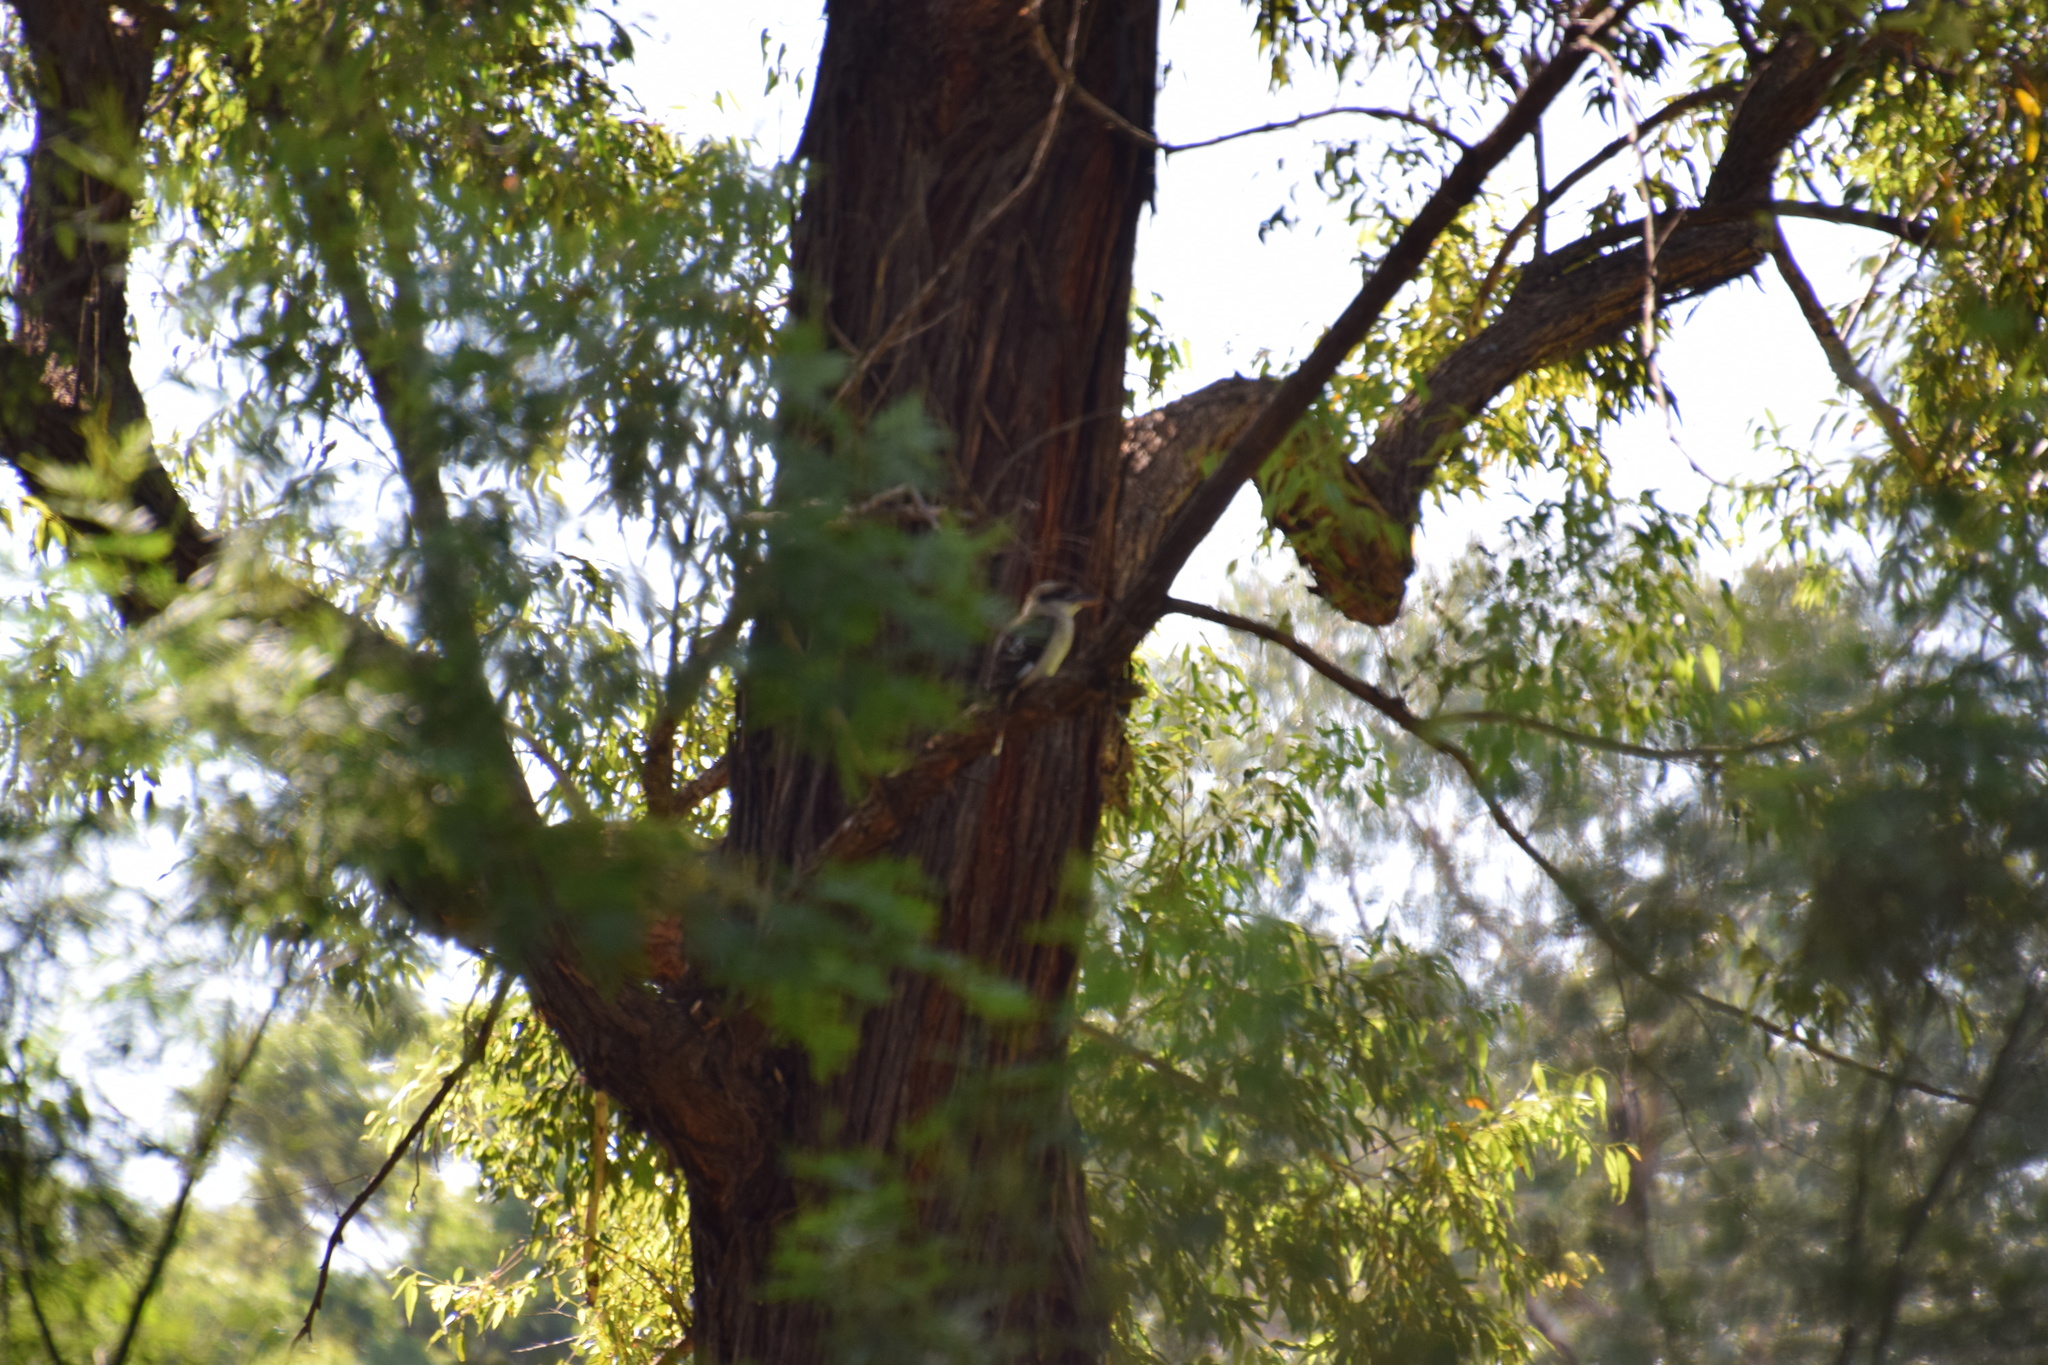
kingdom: Animalia
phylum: Chordata
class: Aves
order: Coraciiformes
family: Alcedinidae
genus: Dacelo
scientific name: Dacelo novaeguineae
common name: Laughing kookaburra
